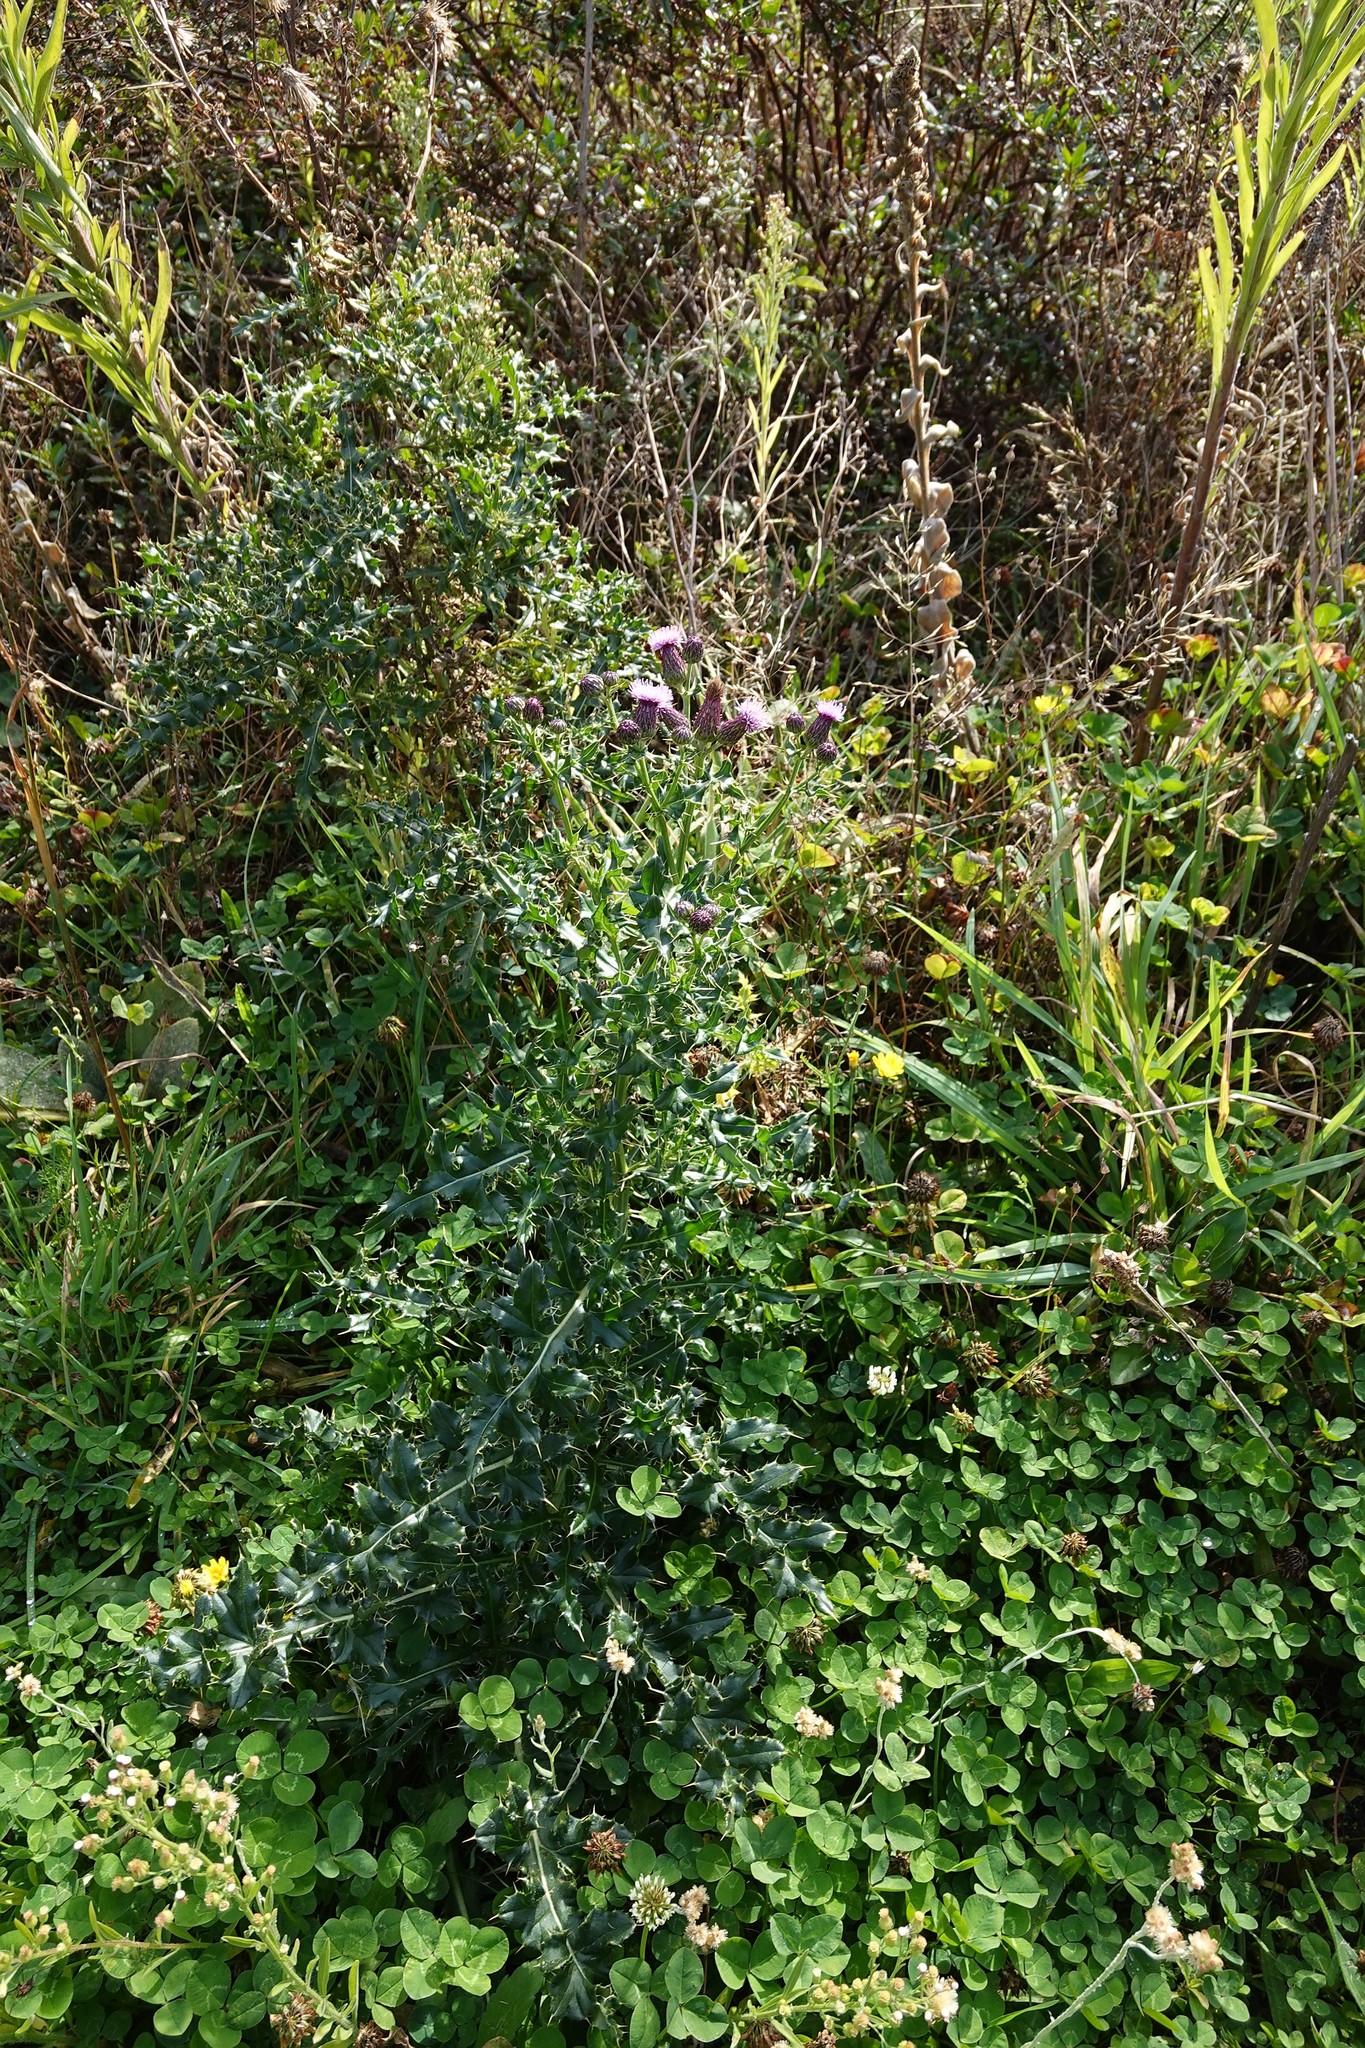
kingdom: Plantae
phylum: Tracheophyta
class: Magnoliopsida
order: Asterales
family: Asteraceae
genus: Cirsium
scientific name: Cirsium arvense
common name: Creeping thistle
